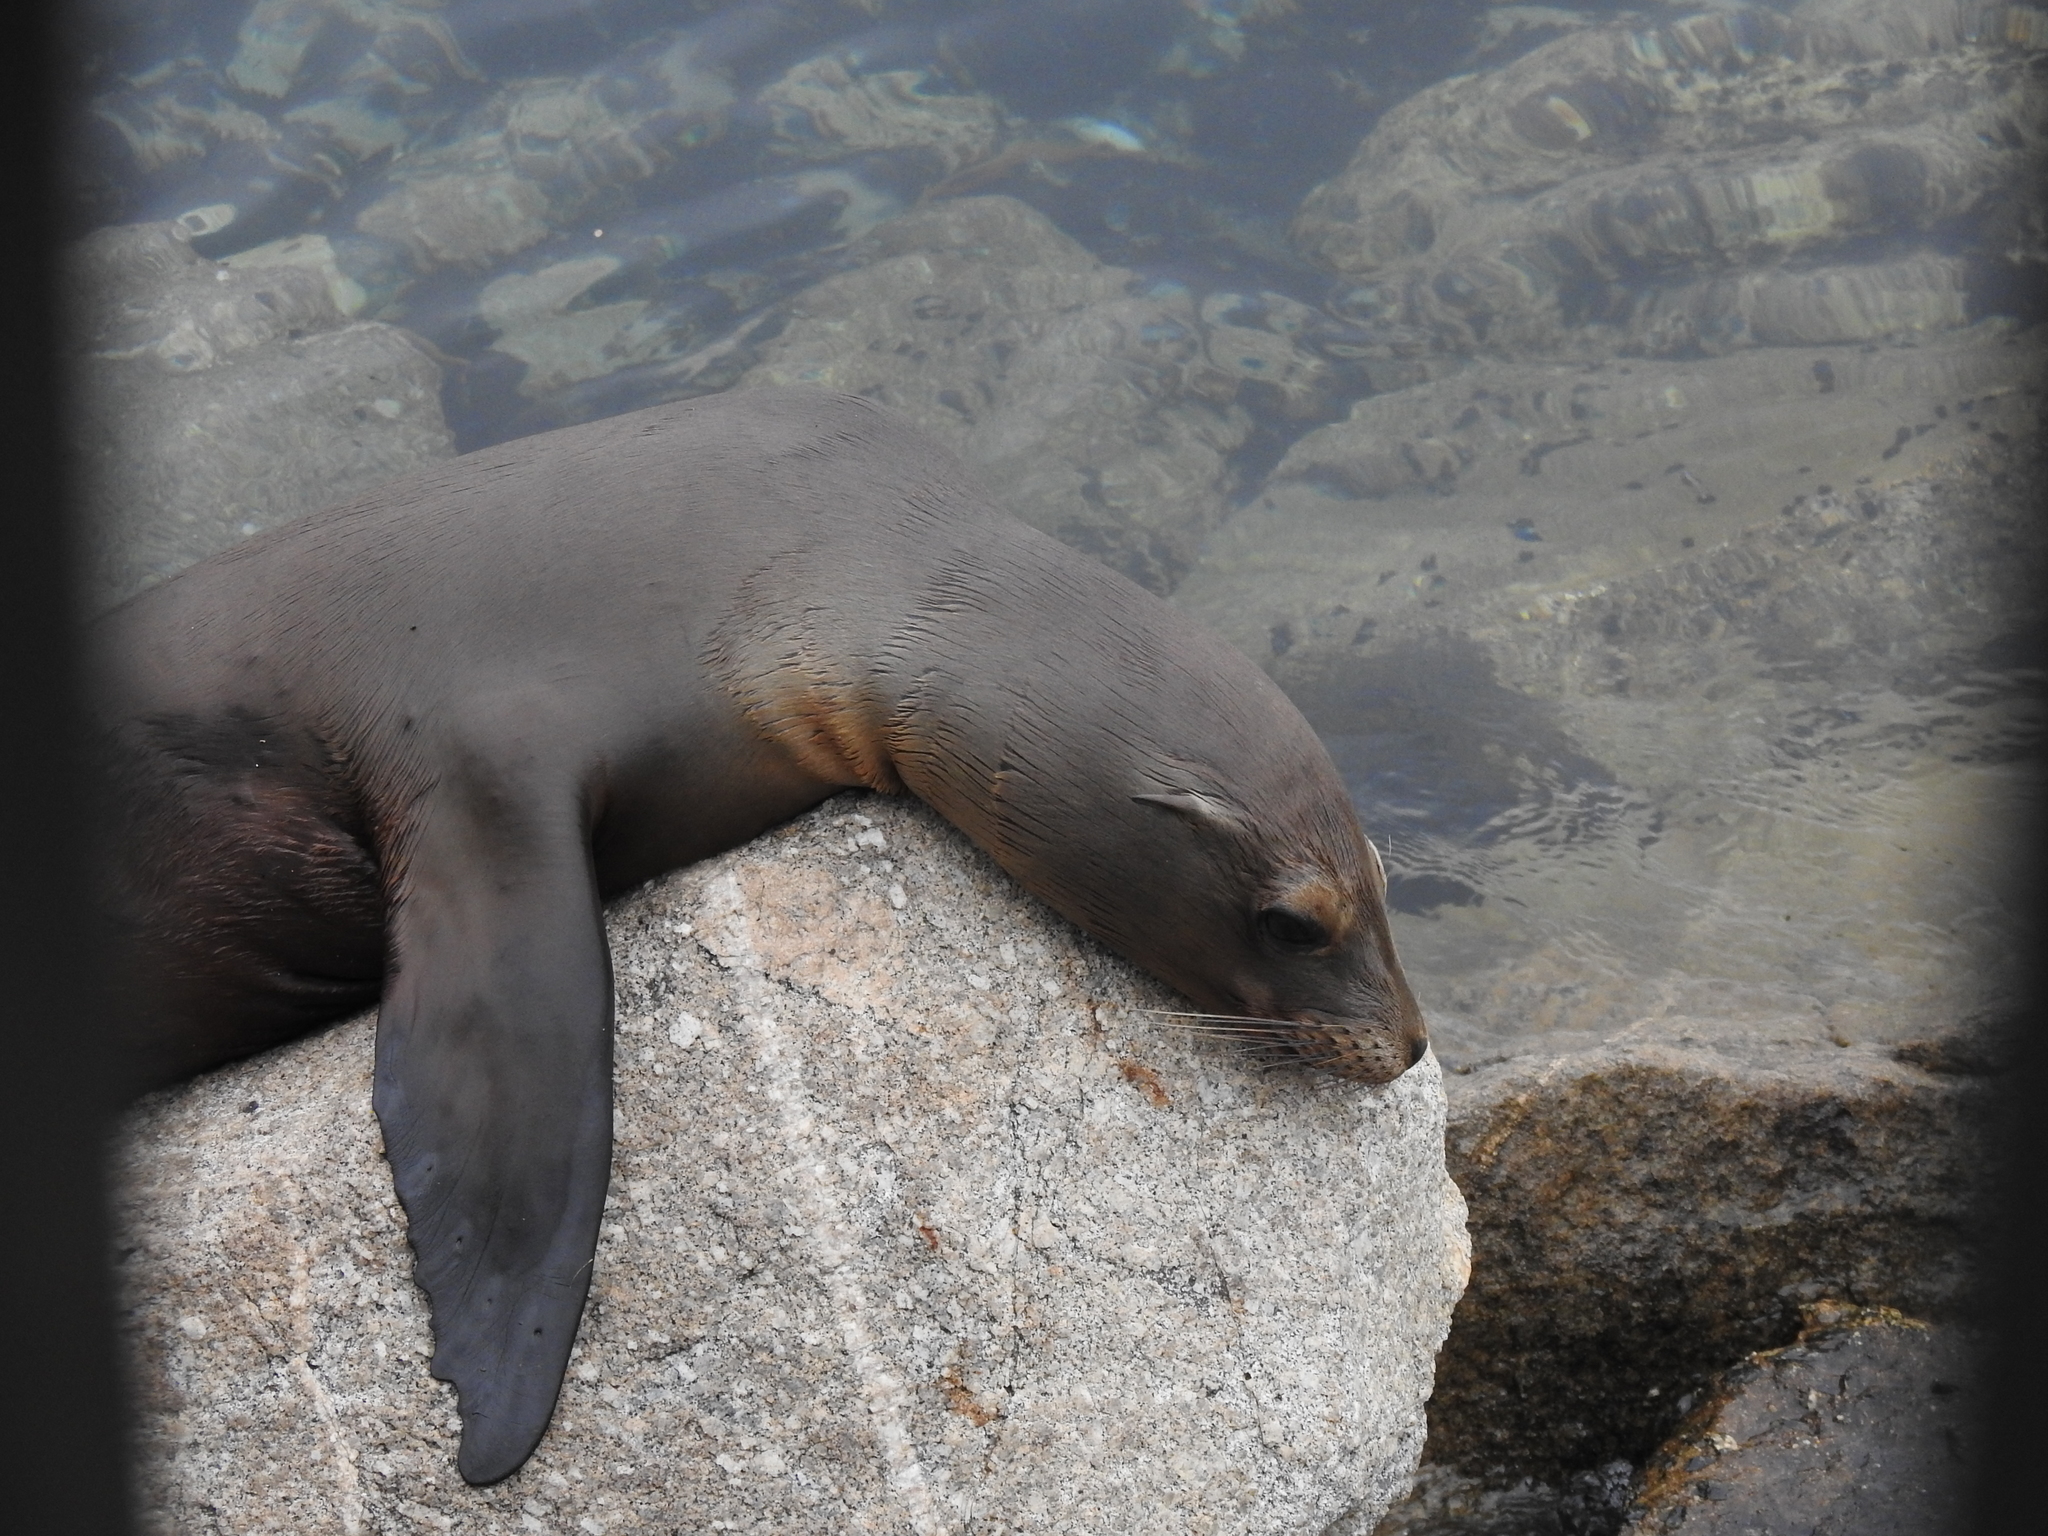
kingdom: Animalia
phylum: Chordata
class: Mammalia
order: Carnivora
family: Otariidae
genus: Zalophus
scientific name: Zalophus californianus
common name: California sea lion
